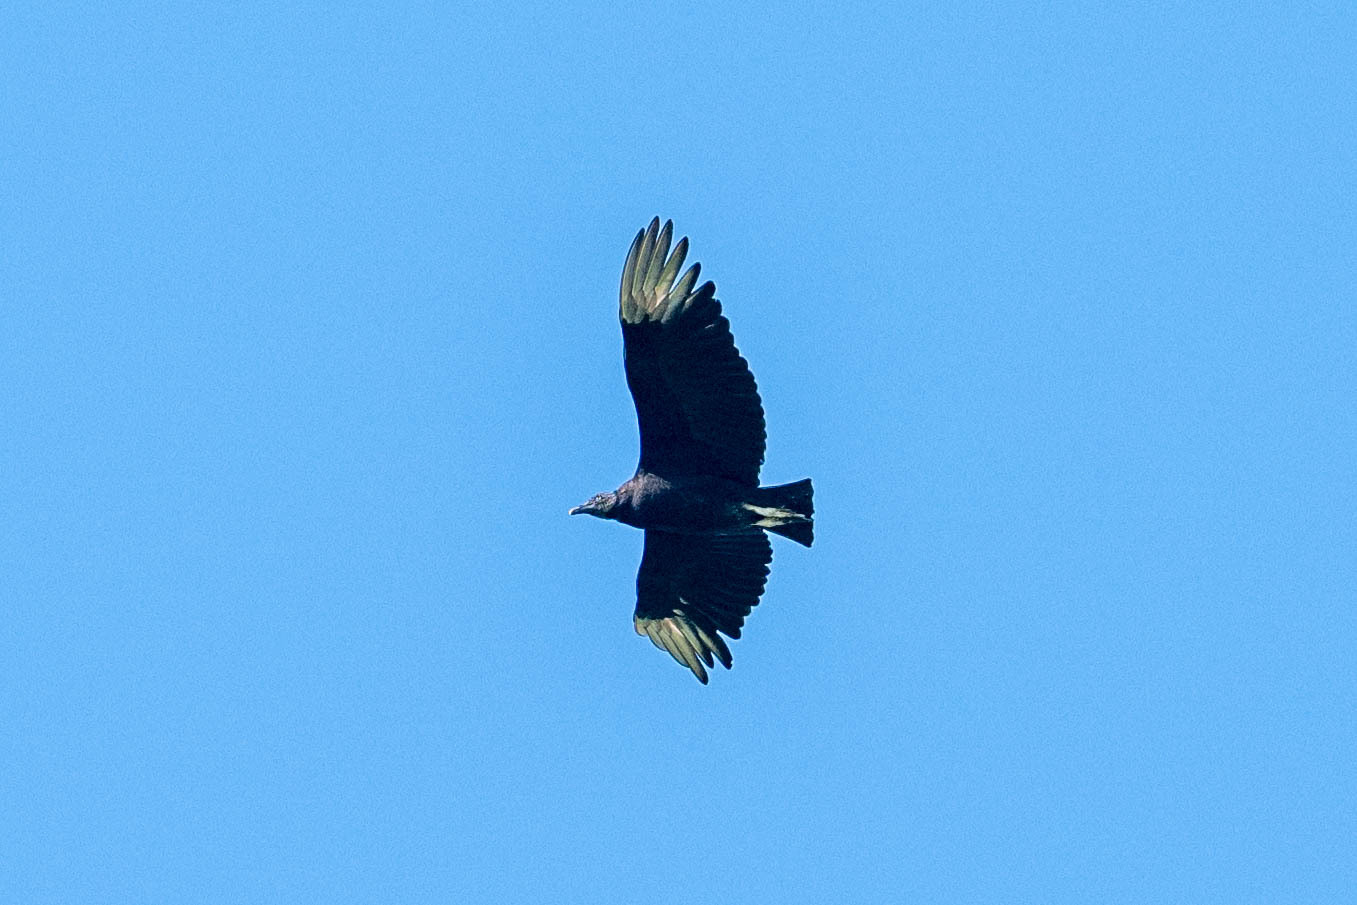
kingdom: Animalia
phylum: Chordata
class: Aves
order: Accipitriformes
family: Cathartidae
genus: Coragyps
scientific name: Coragyps atratus
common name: Black vulture
